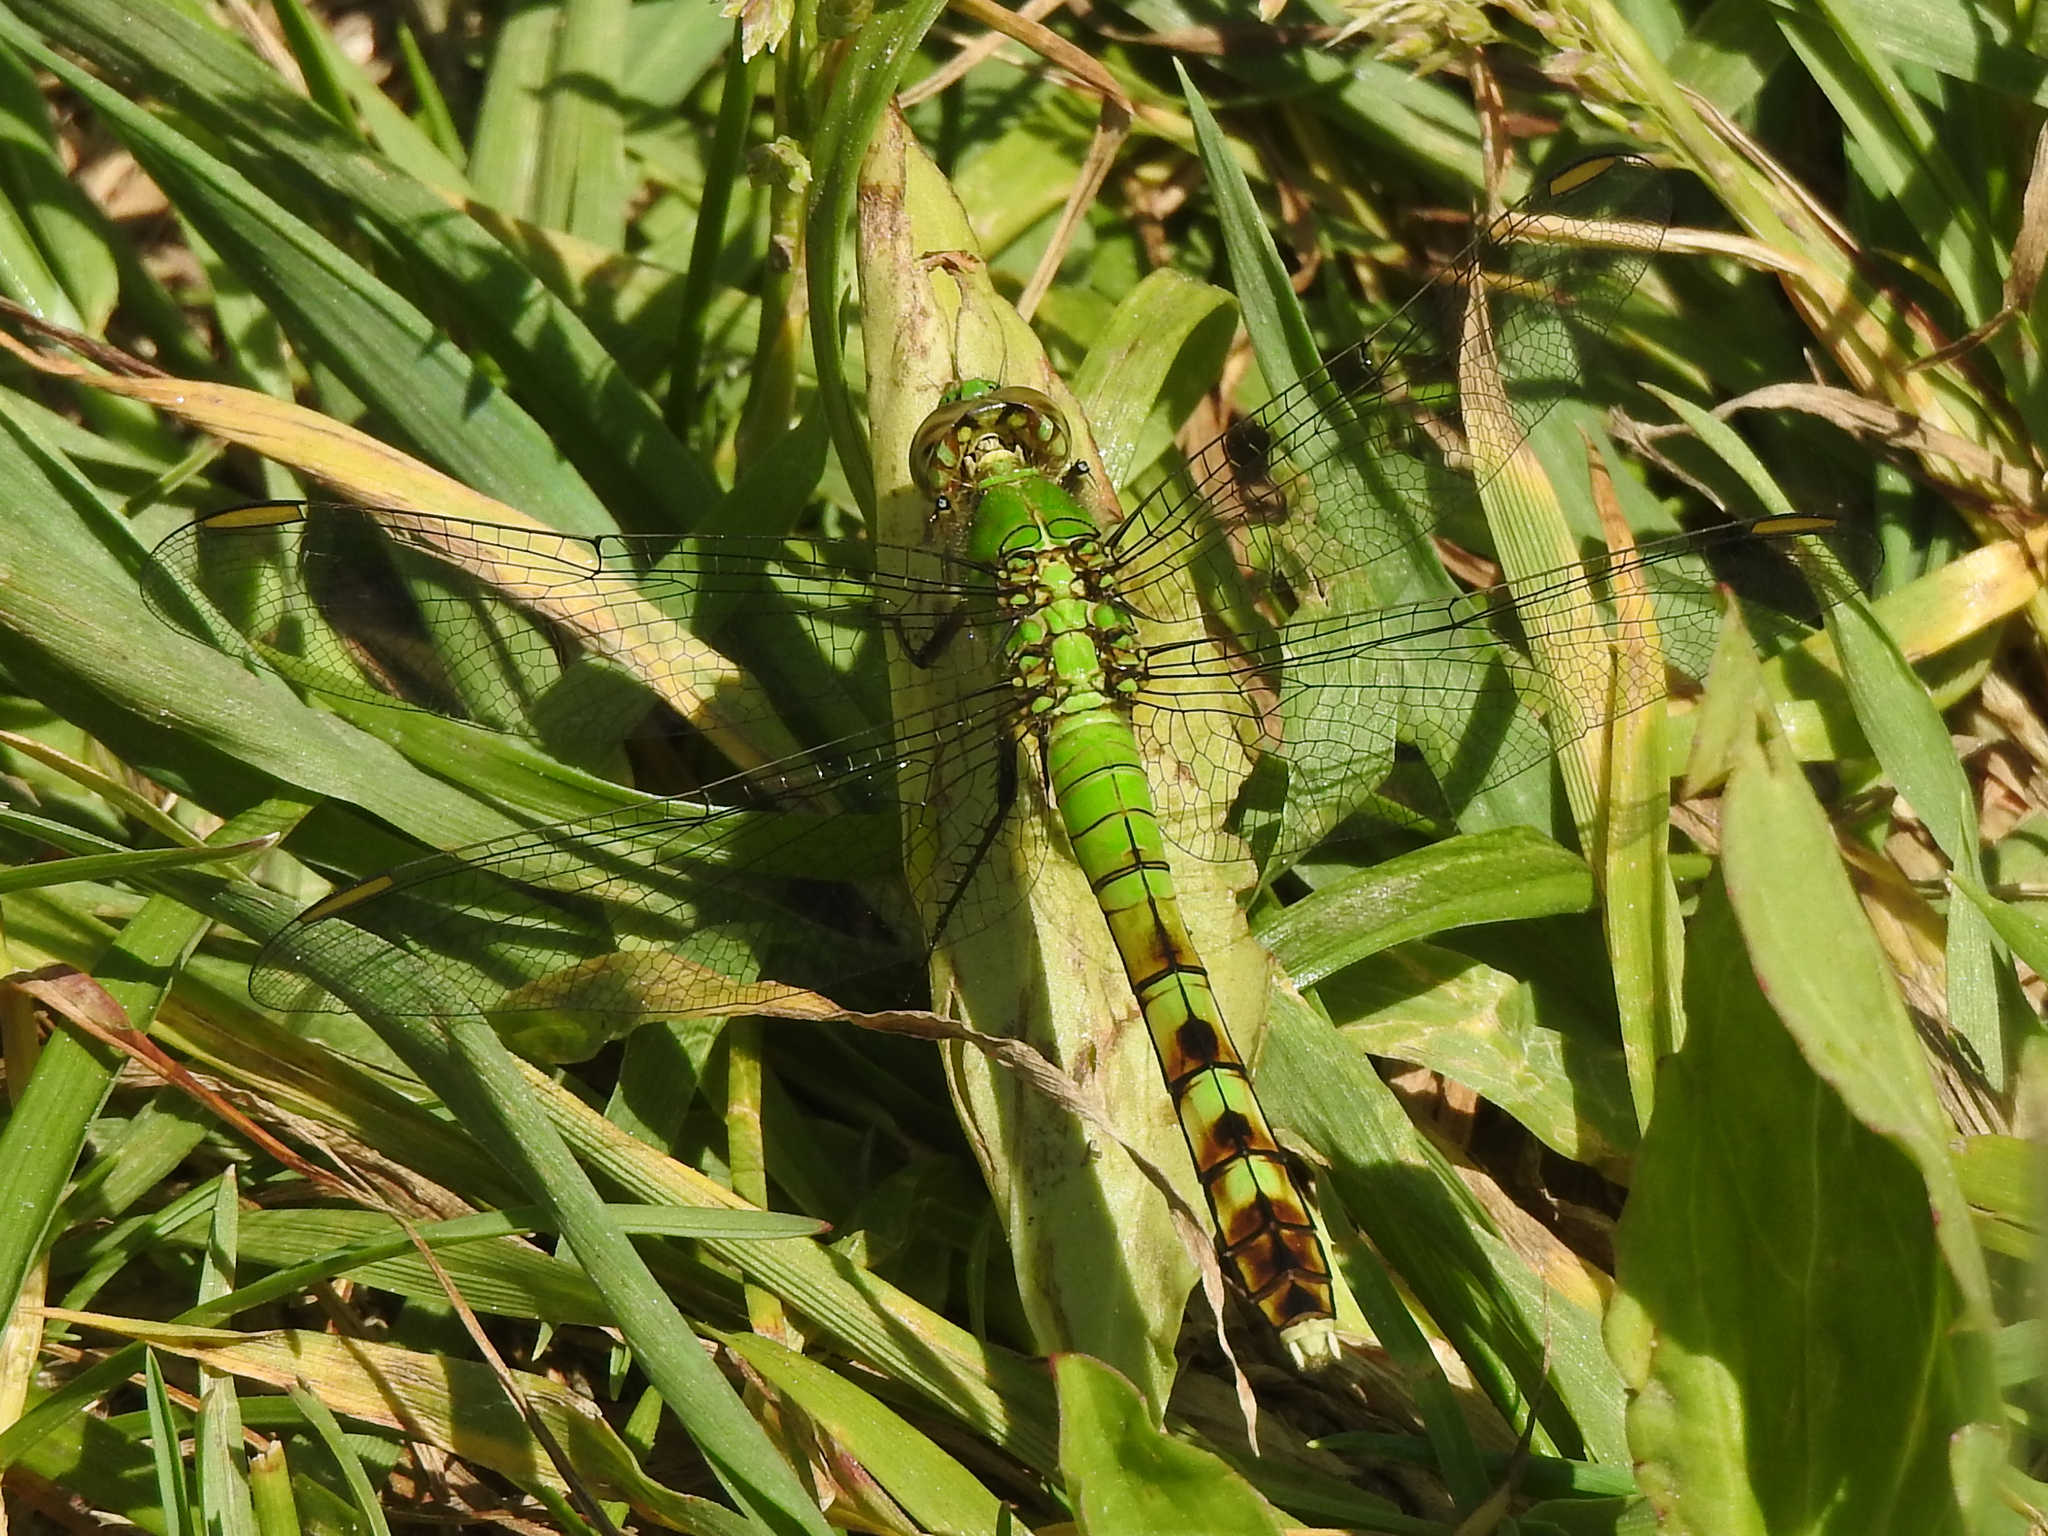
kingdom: Animalia
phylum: Arthropoda
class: Insecta
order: Odonata
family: Libellulidae
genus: Erythemis
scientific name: Erythemis simplicicollis
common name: Eastern pondhawk
